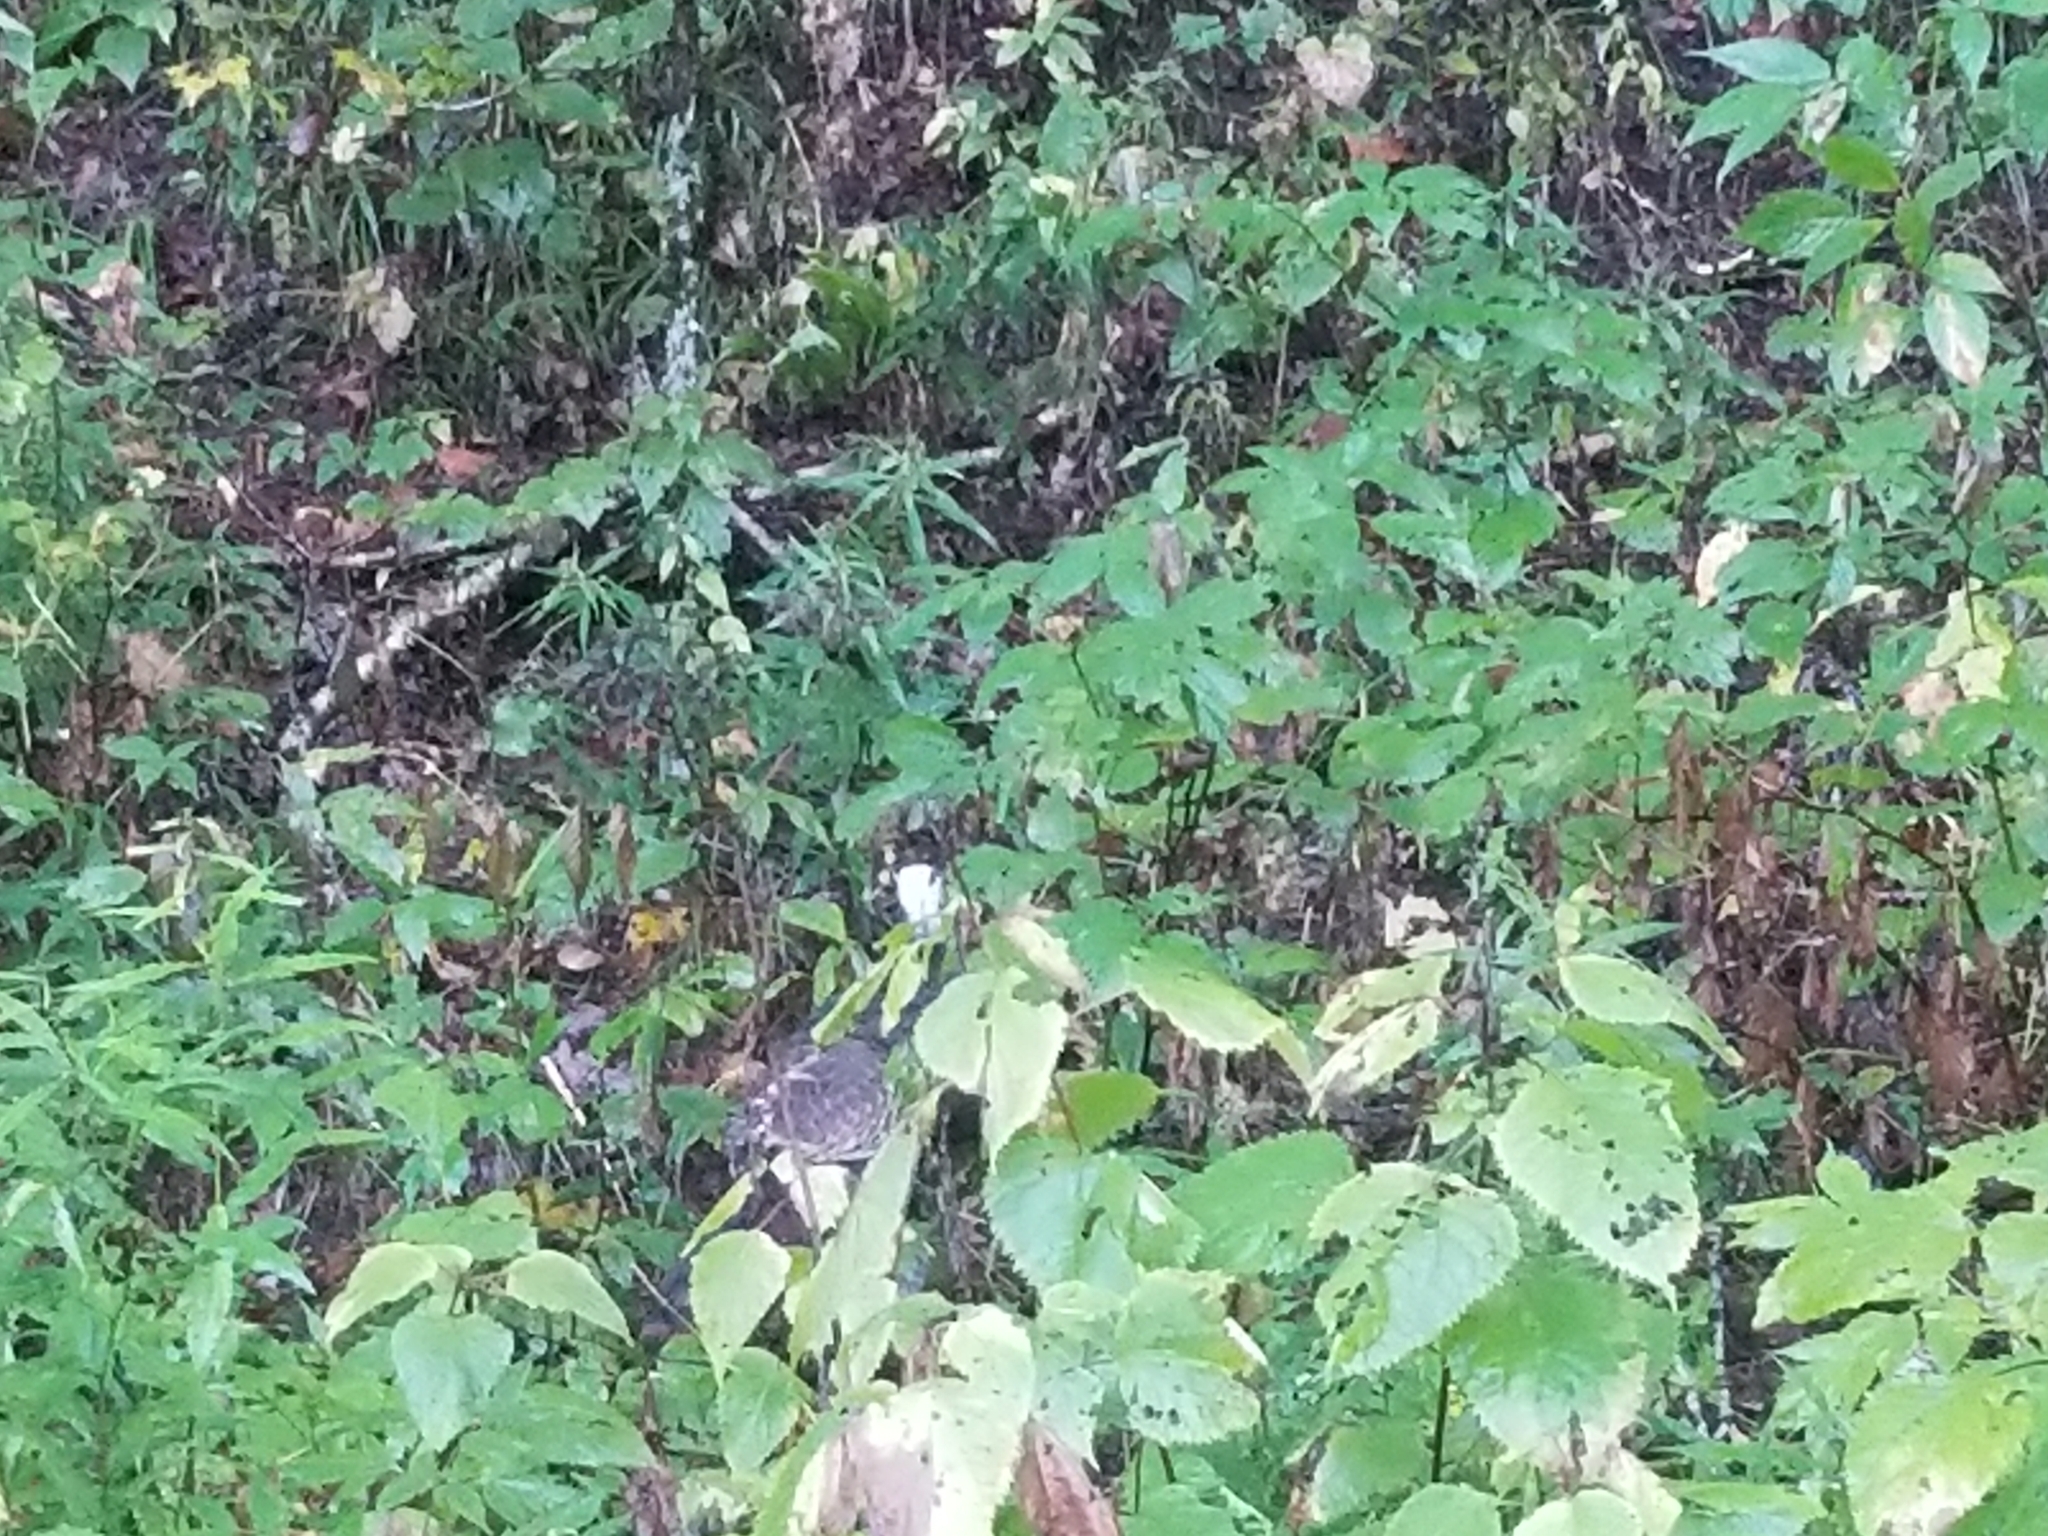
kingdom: Animalia
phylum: Chordata
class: Aves
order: Galliformes
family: Phasianidae
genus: Meleagris
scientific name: Meleagris gallopavo
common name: Wild turkey
